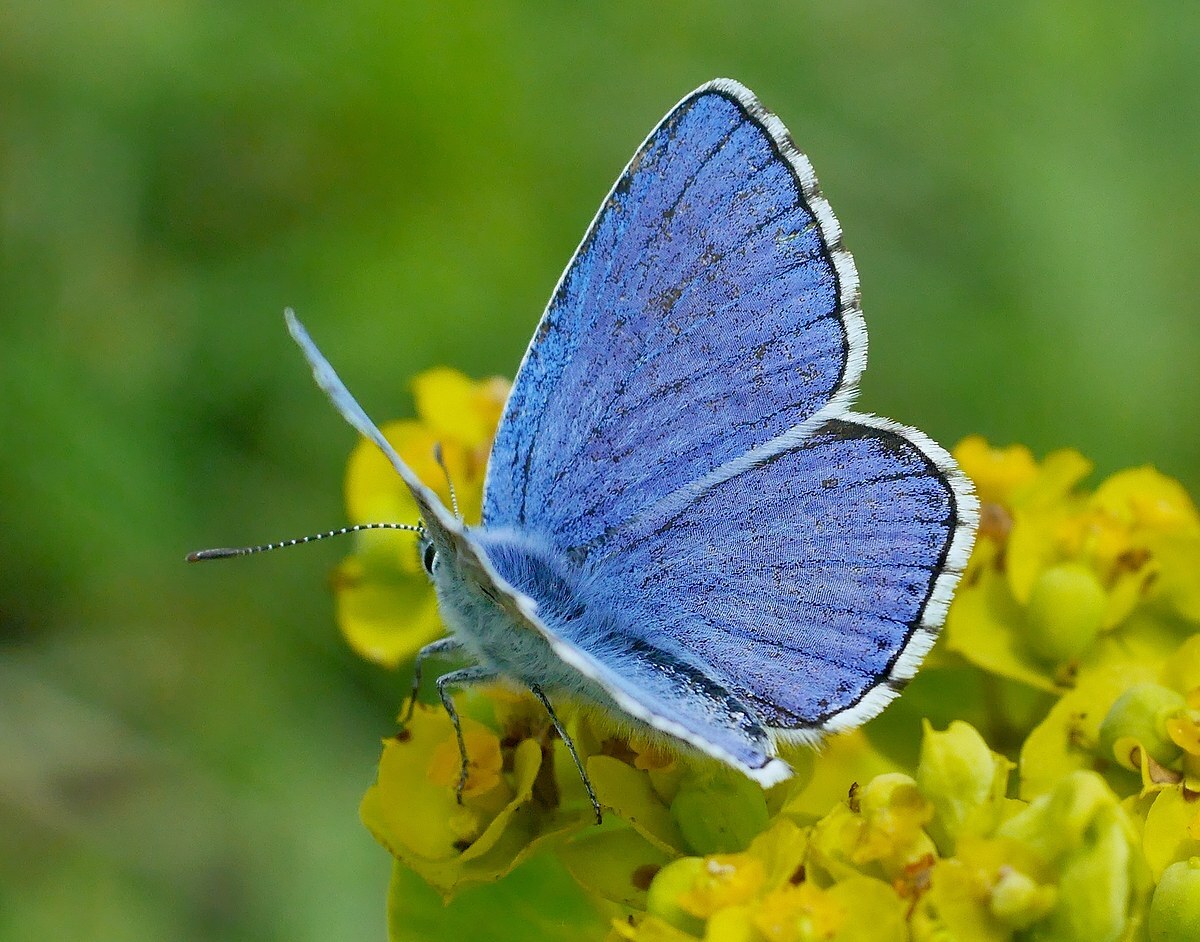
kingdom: Animalia
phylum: Arthropoda
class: Insecta
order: Lepidoptera
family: Lycaenidae
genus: Lysandra
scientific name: Lysandra bellargus
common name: Adonis blue
